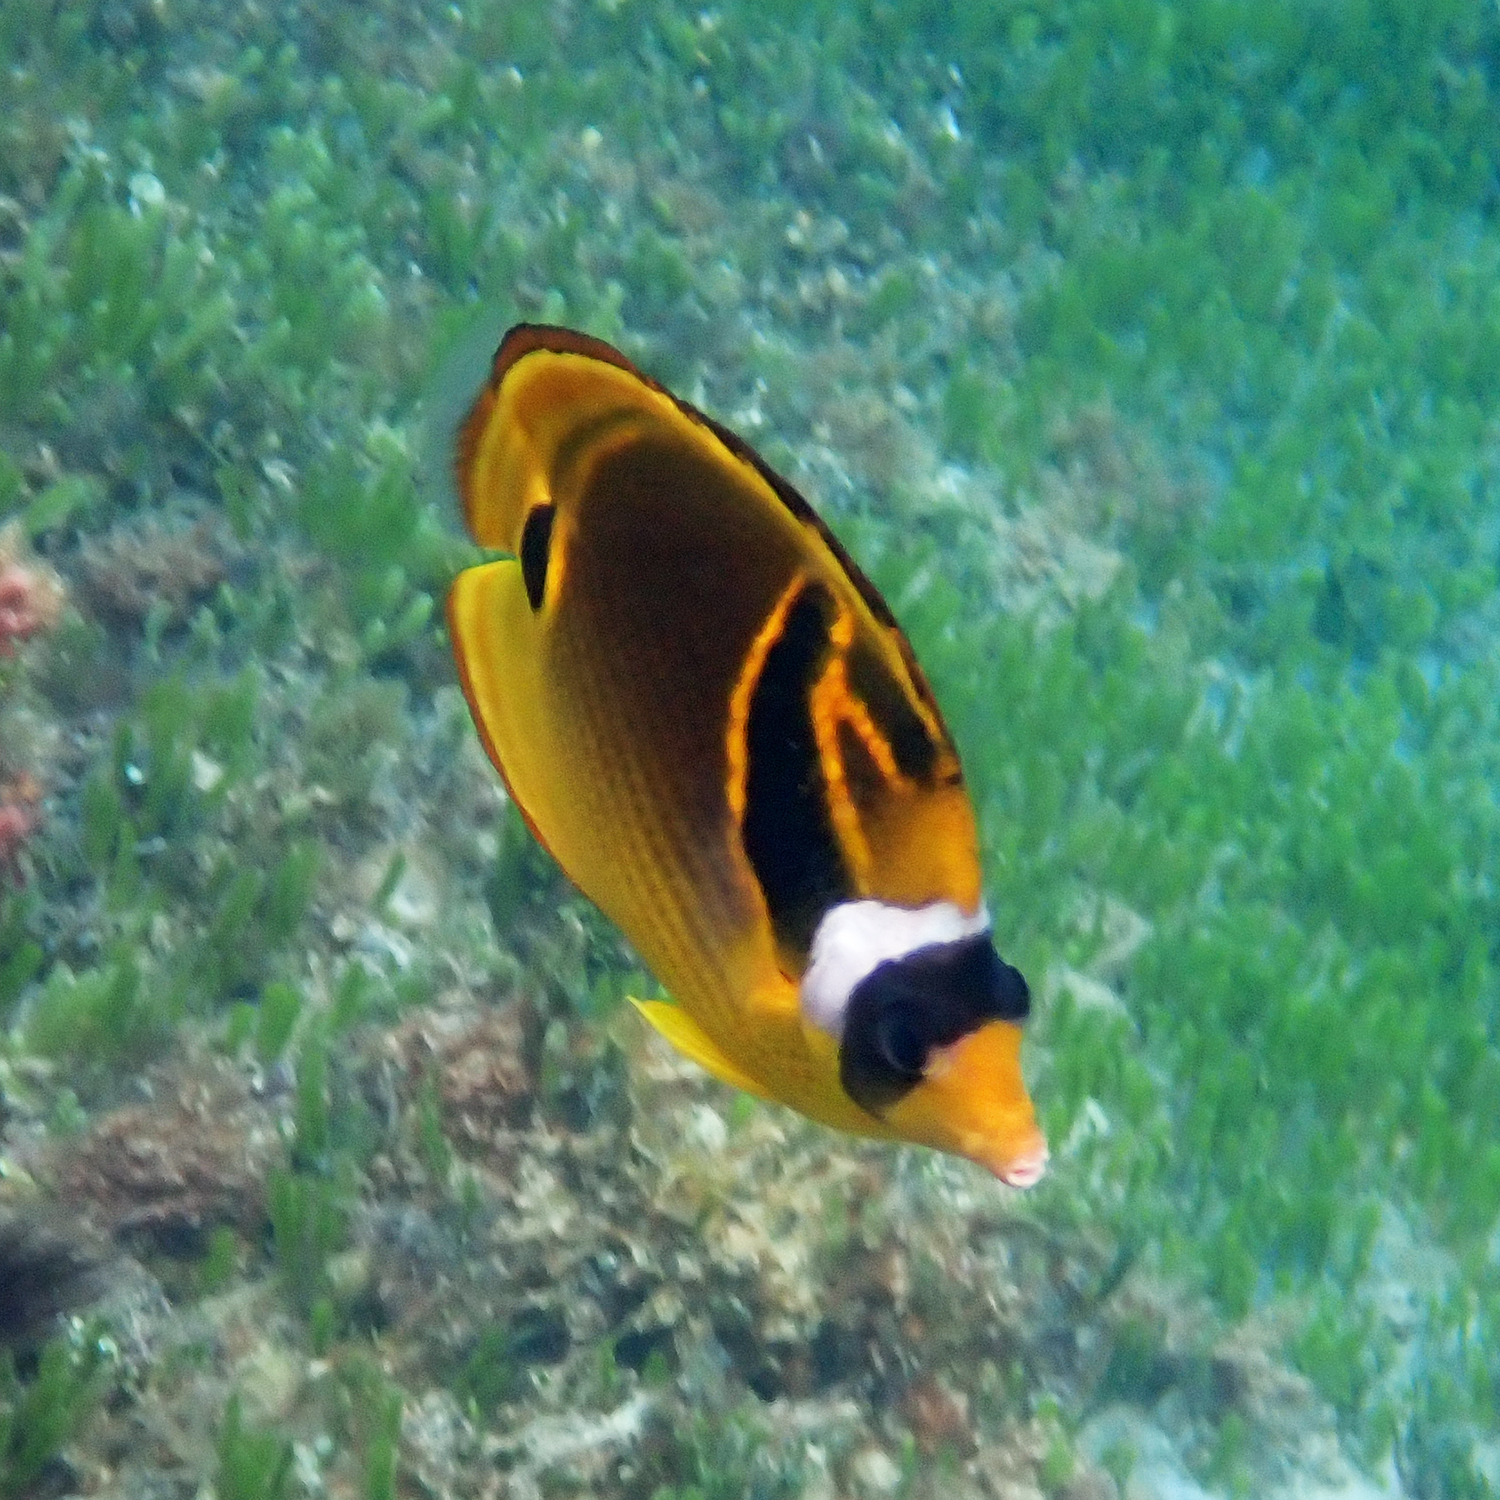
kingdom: Animalia
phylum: Chordata
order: Perciformes
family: Chaetodontidae
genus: Chaetodon
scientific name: Chaetodon lunula
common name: Raccoon butterflyfish
